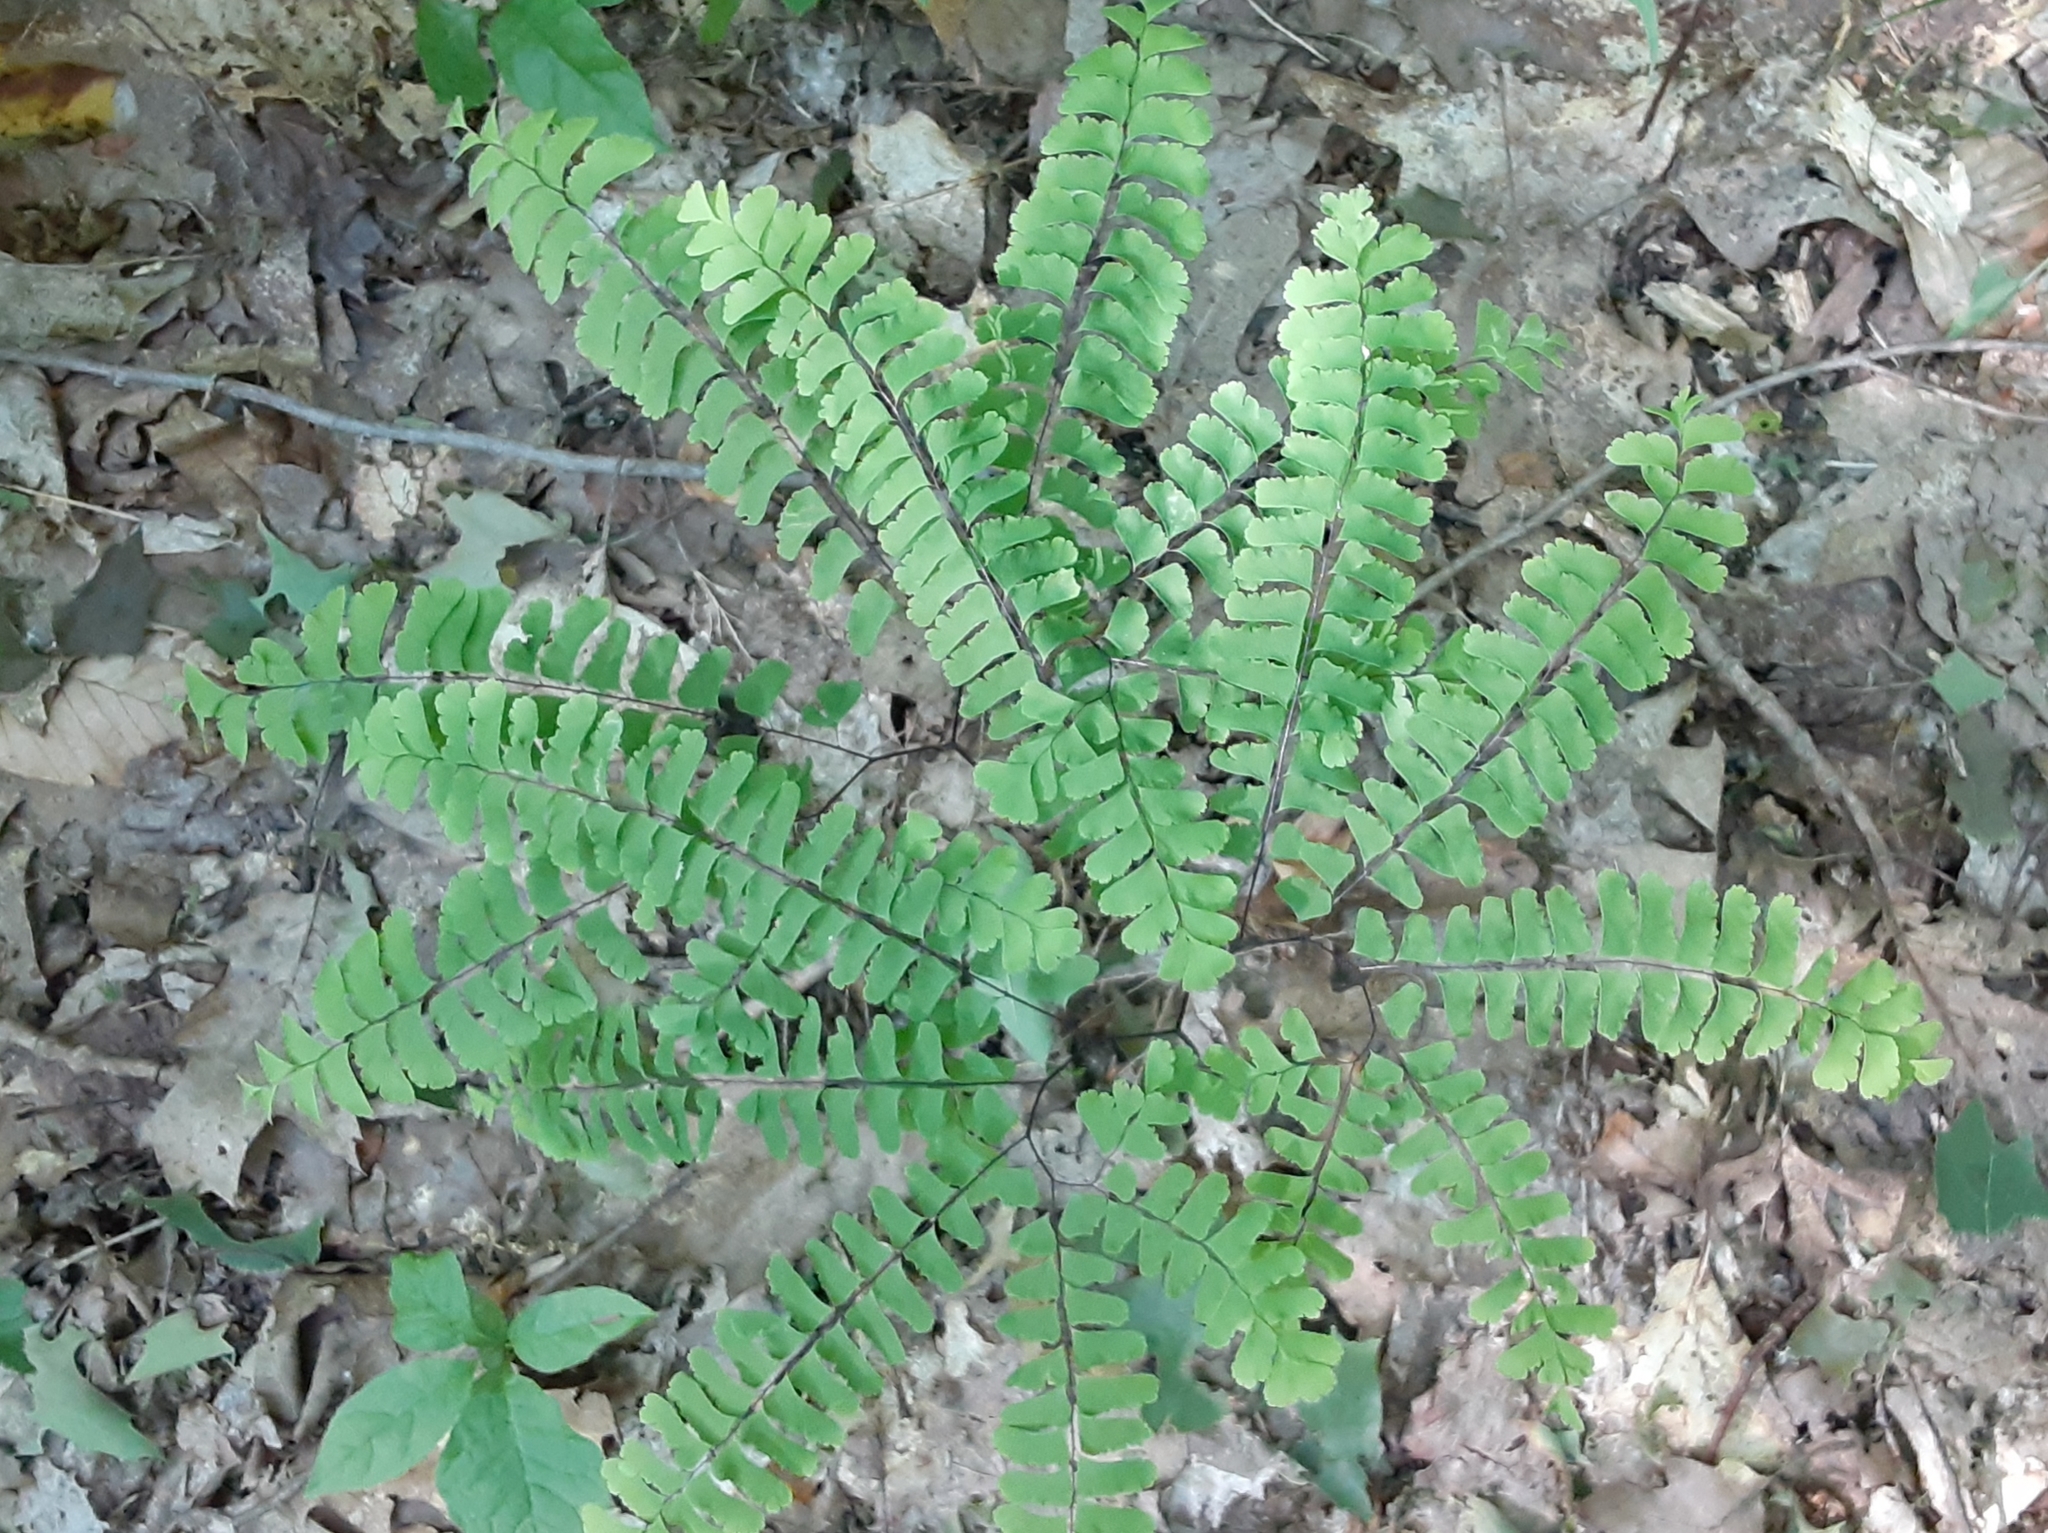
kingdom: Plantae
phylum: Tracheophyta
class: Polypodiopsida
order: Polypodiales
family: Pteridaceae
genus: Adiantum
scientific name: Adiantum pedatum
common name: Five-finger fern
